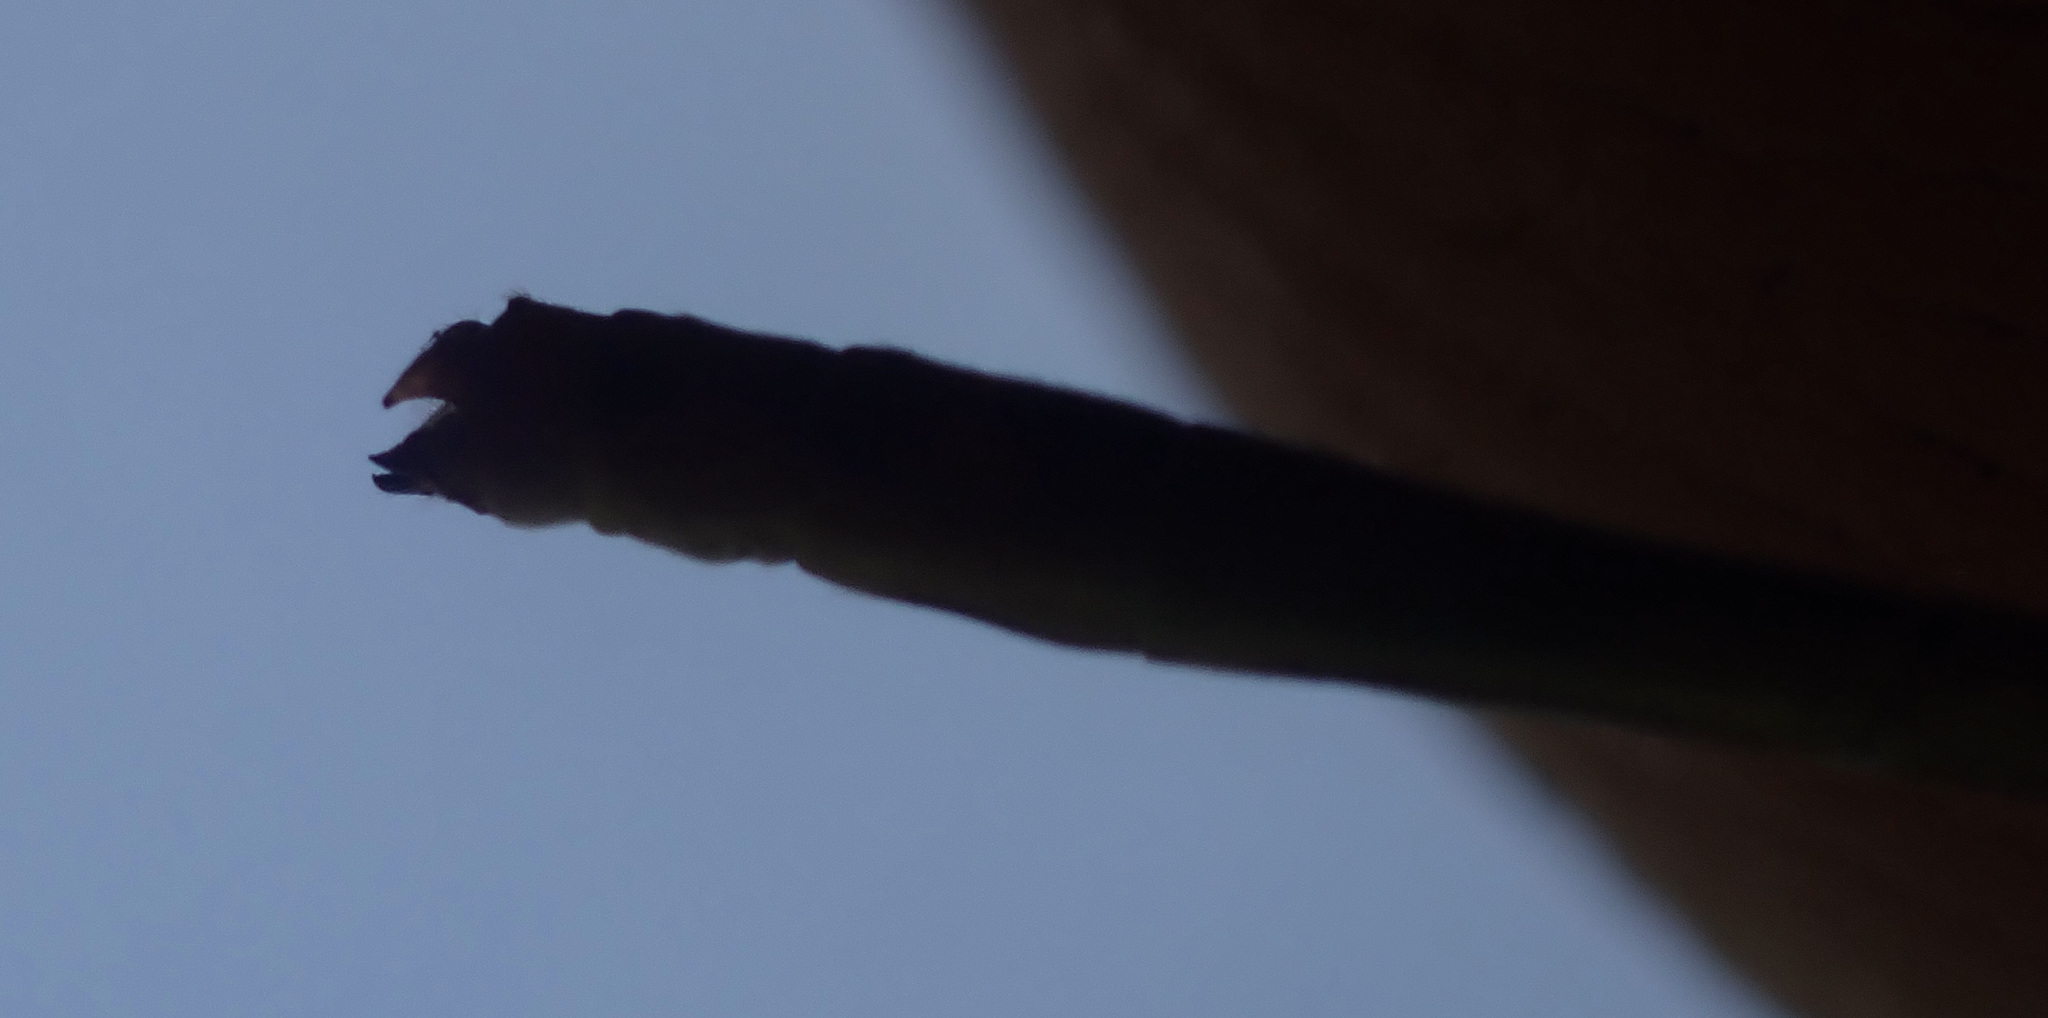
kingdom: Animalia
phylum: Arthropoda
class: Insecta
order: Odonata
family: Coenagrionidae
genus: Agriocnemis
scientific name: Agriocnemis gratiosa
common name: Gracious wisp
